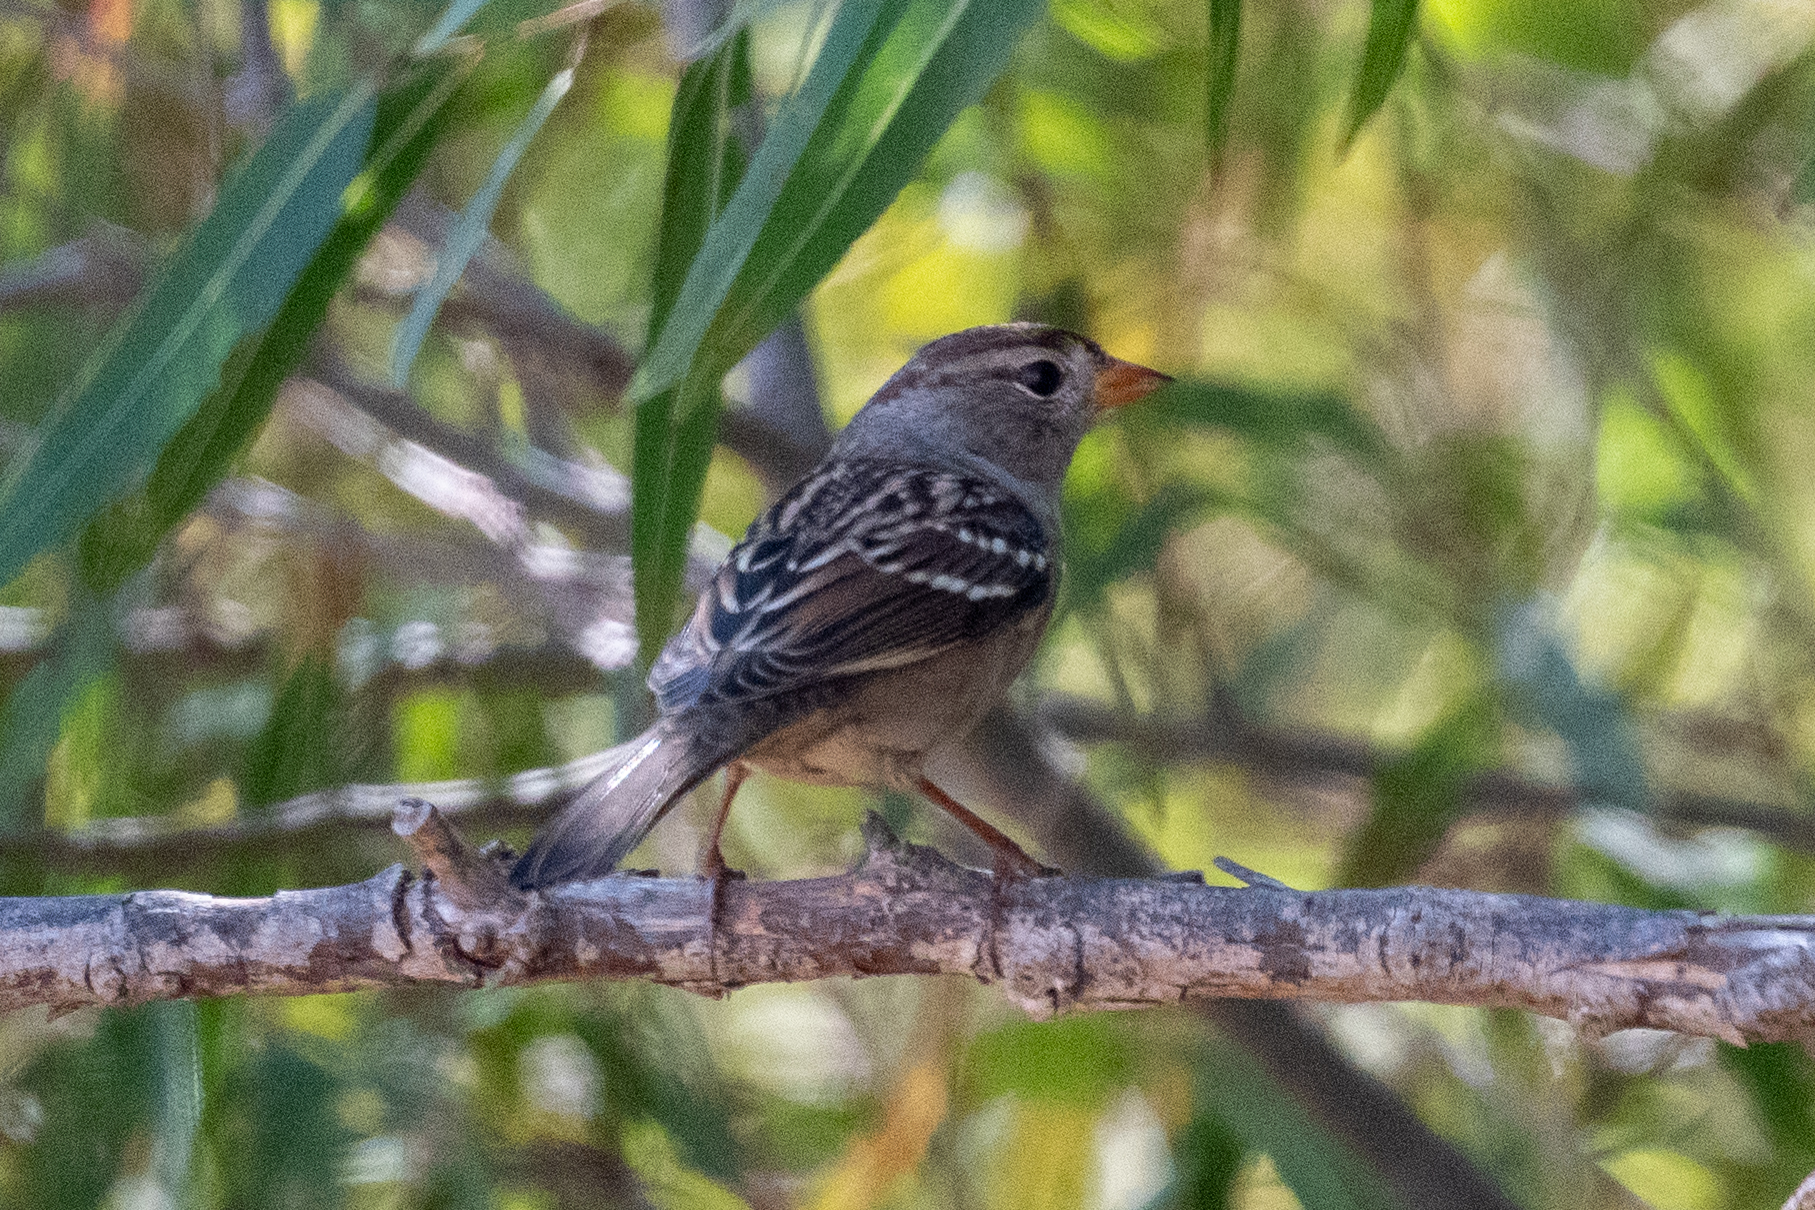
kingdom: Animalia
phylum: Chordata
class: Aves
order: Passeriformes
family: Passerellidae
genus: Zonotrichia
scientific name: Zonotrichia leucophrys
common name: White-crowned sparrow
